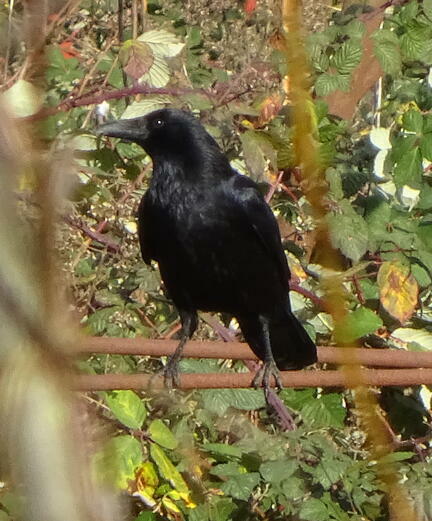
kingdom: Animalia
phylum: Chordata
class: Aves
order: Passeriformes
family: Corvidae
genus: Corvus
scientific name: Corvus corone
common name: Carrion crow
